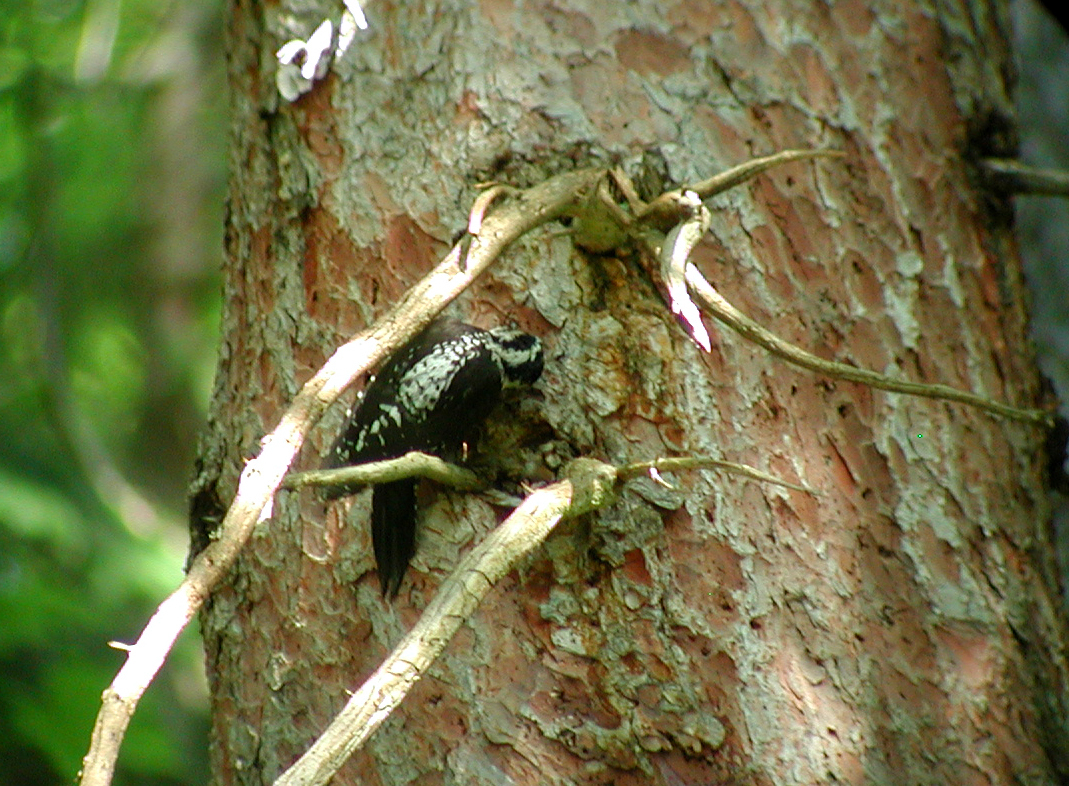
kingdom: Animalia
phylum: Chordata
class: Aves
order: Piciformes
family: Picidae
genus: Picoides
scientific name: Picoides tridactylus
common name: Eurasian three-toed woodpecker
